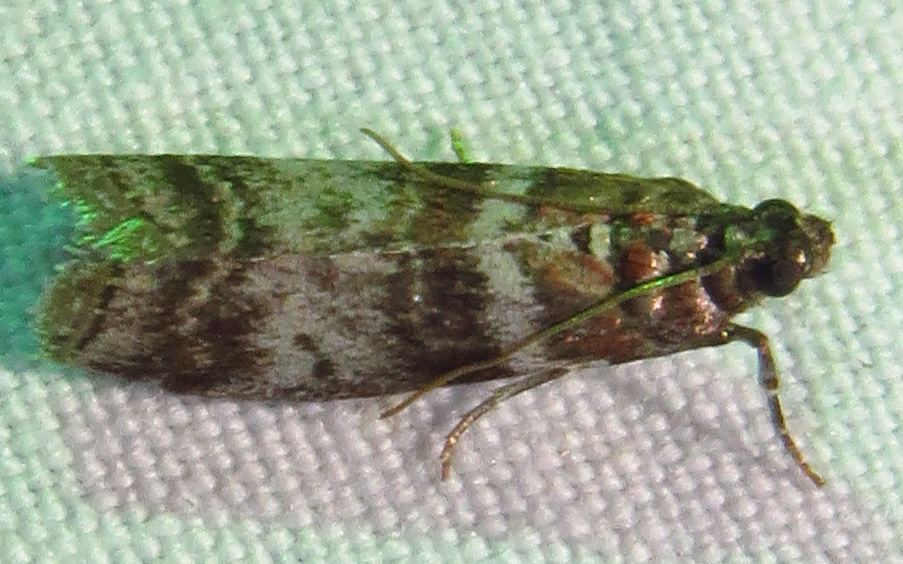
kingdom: Animalia
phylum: Arthropoda
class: Insecta
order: Lepidoptera
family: Pyralidae
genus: Sciota
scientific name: Sciota uvinella
